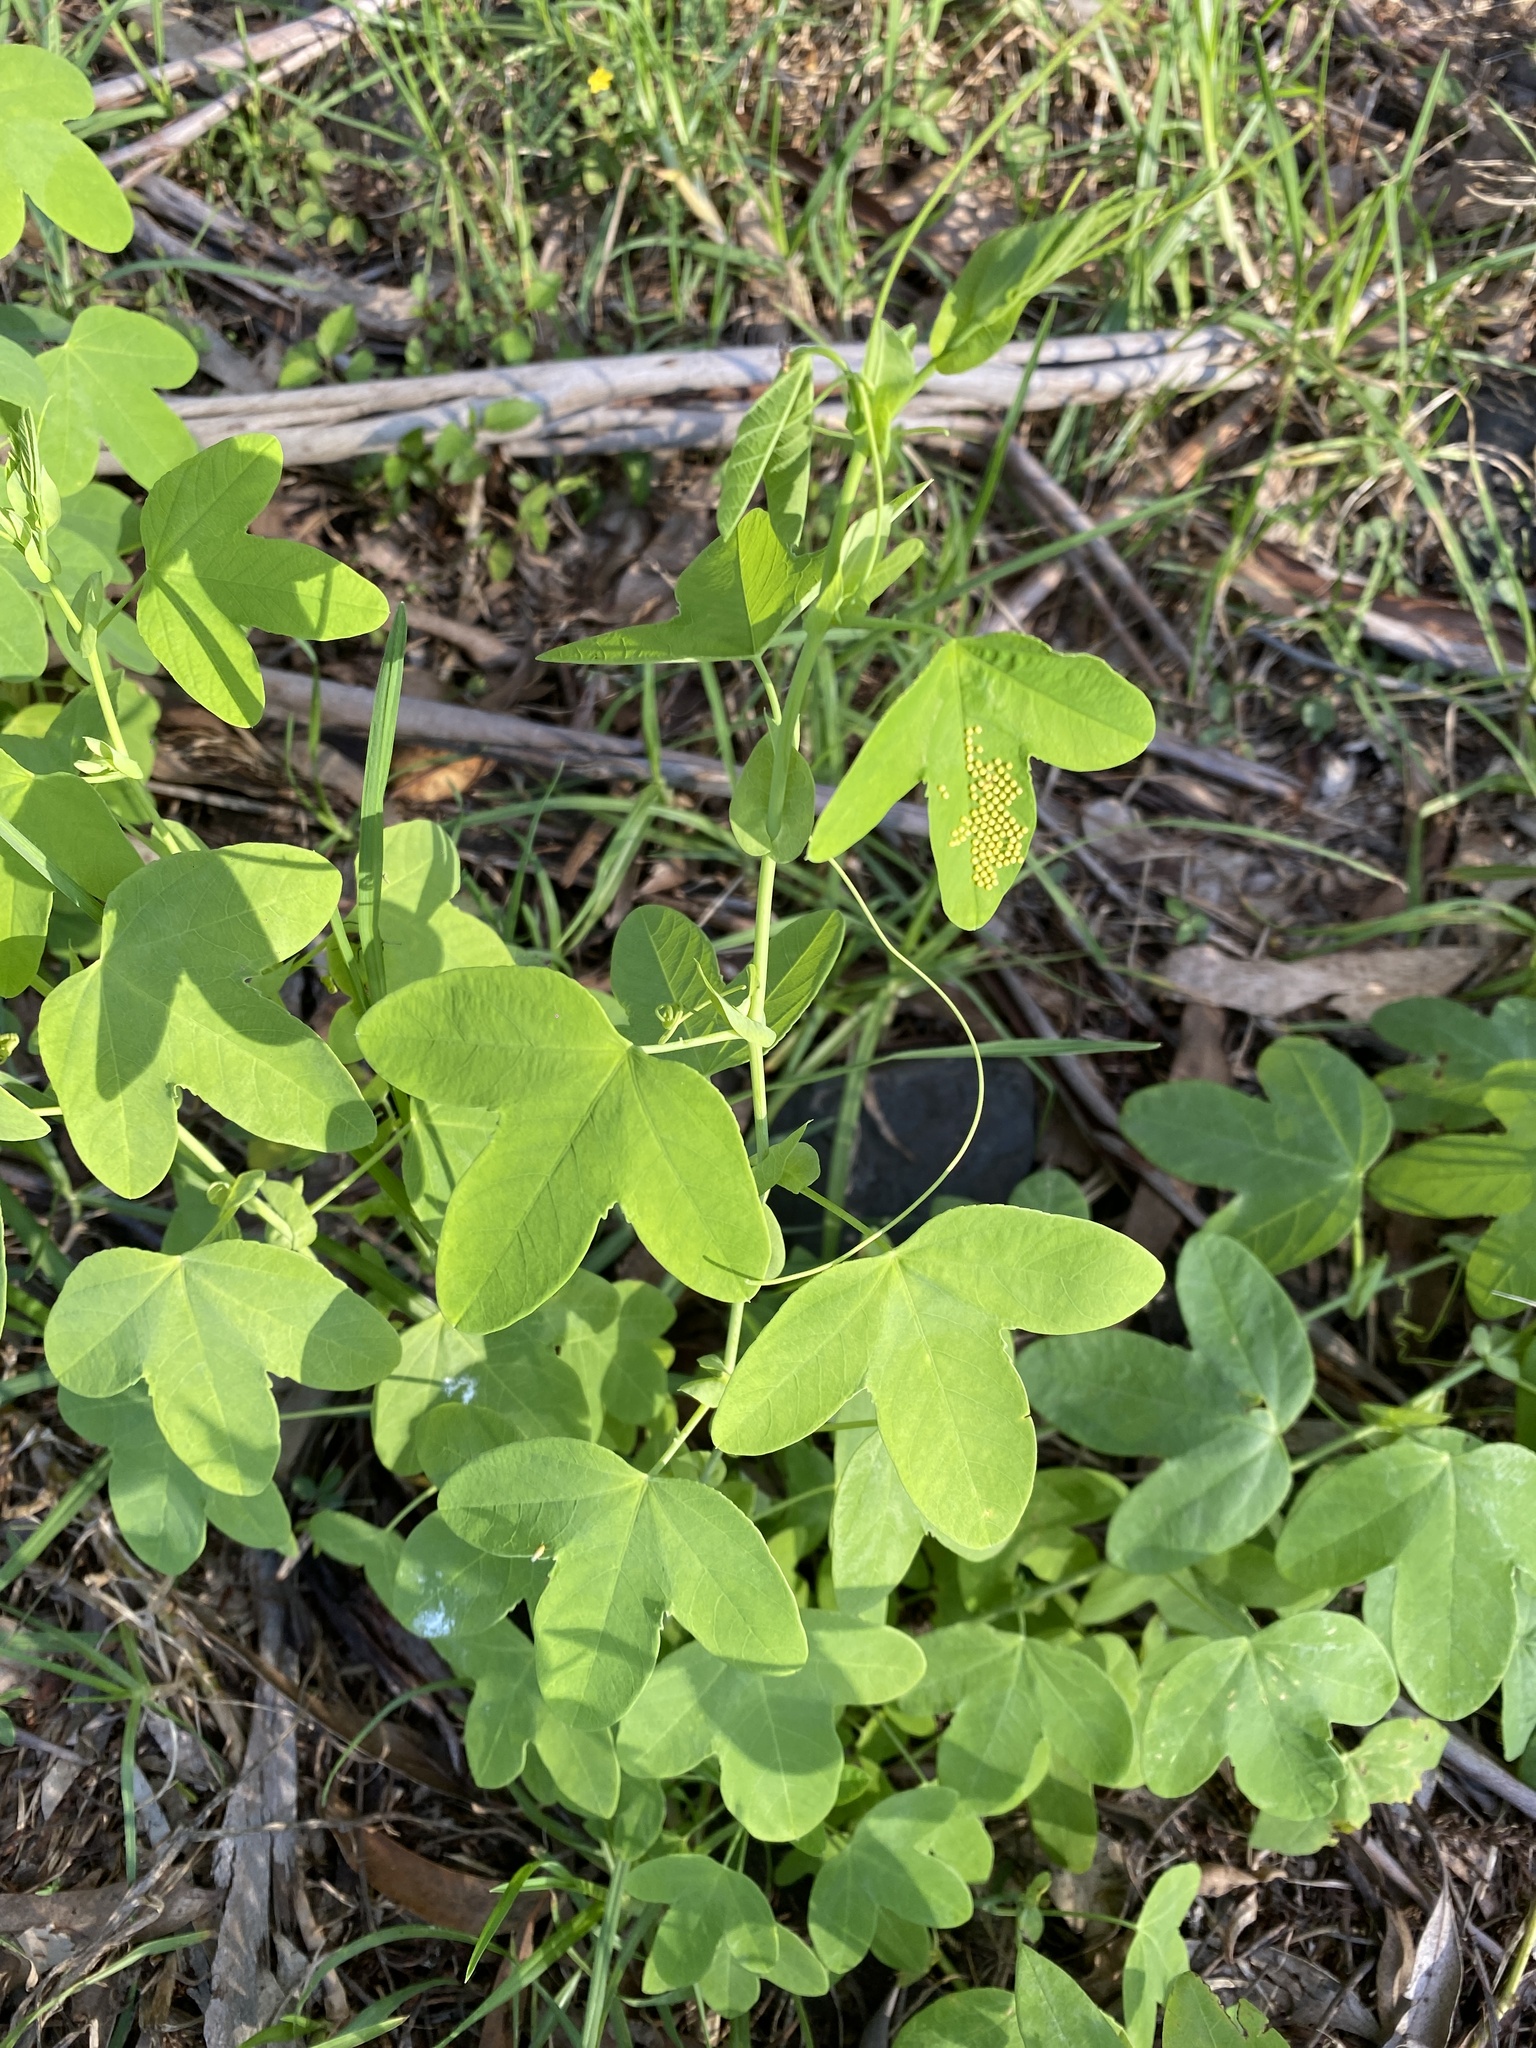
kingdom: Plantae
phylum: Tracheophyta
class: Magnoliopsida
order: Malpighiales
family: Passifloraceae
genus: Passiflora
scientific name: Passiflora subpeltata
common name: White passionflower
